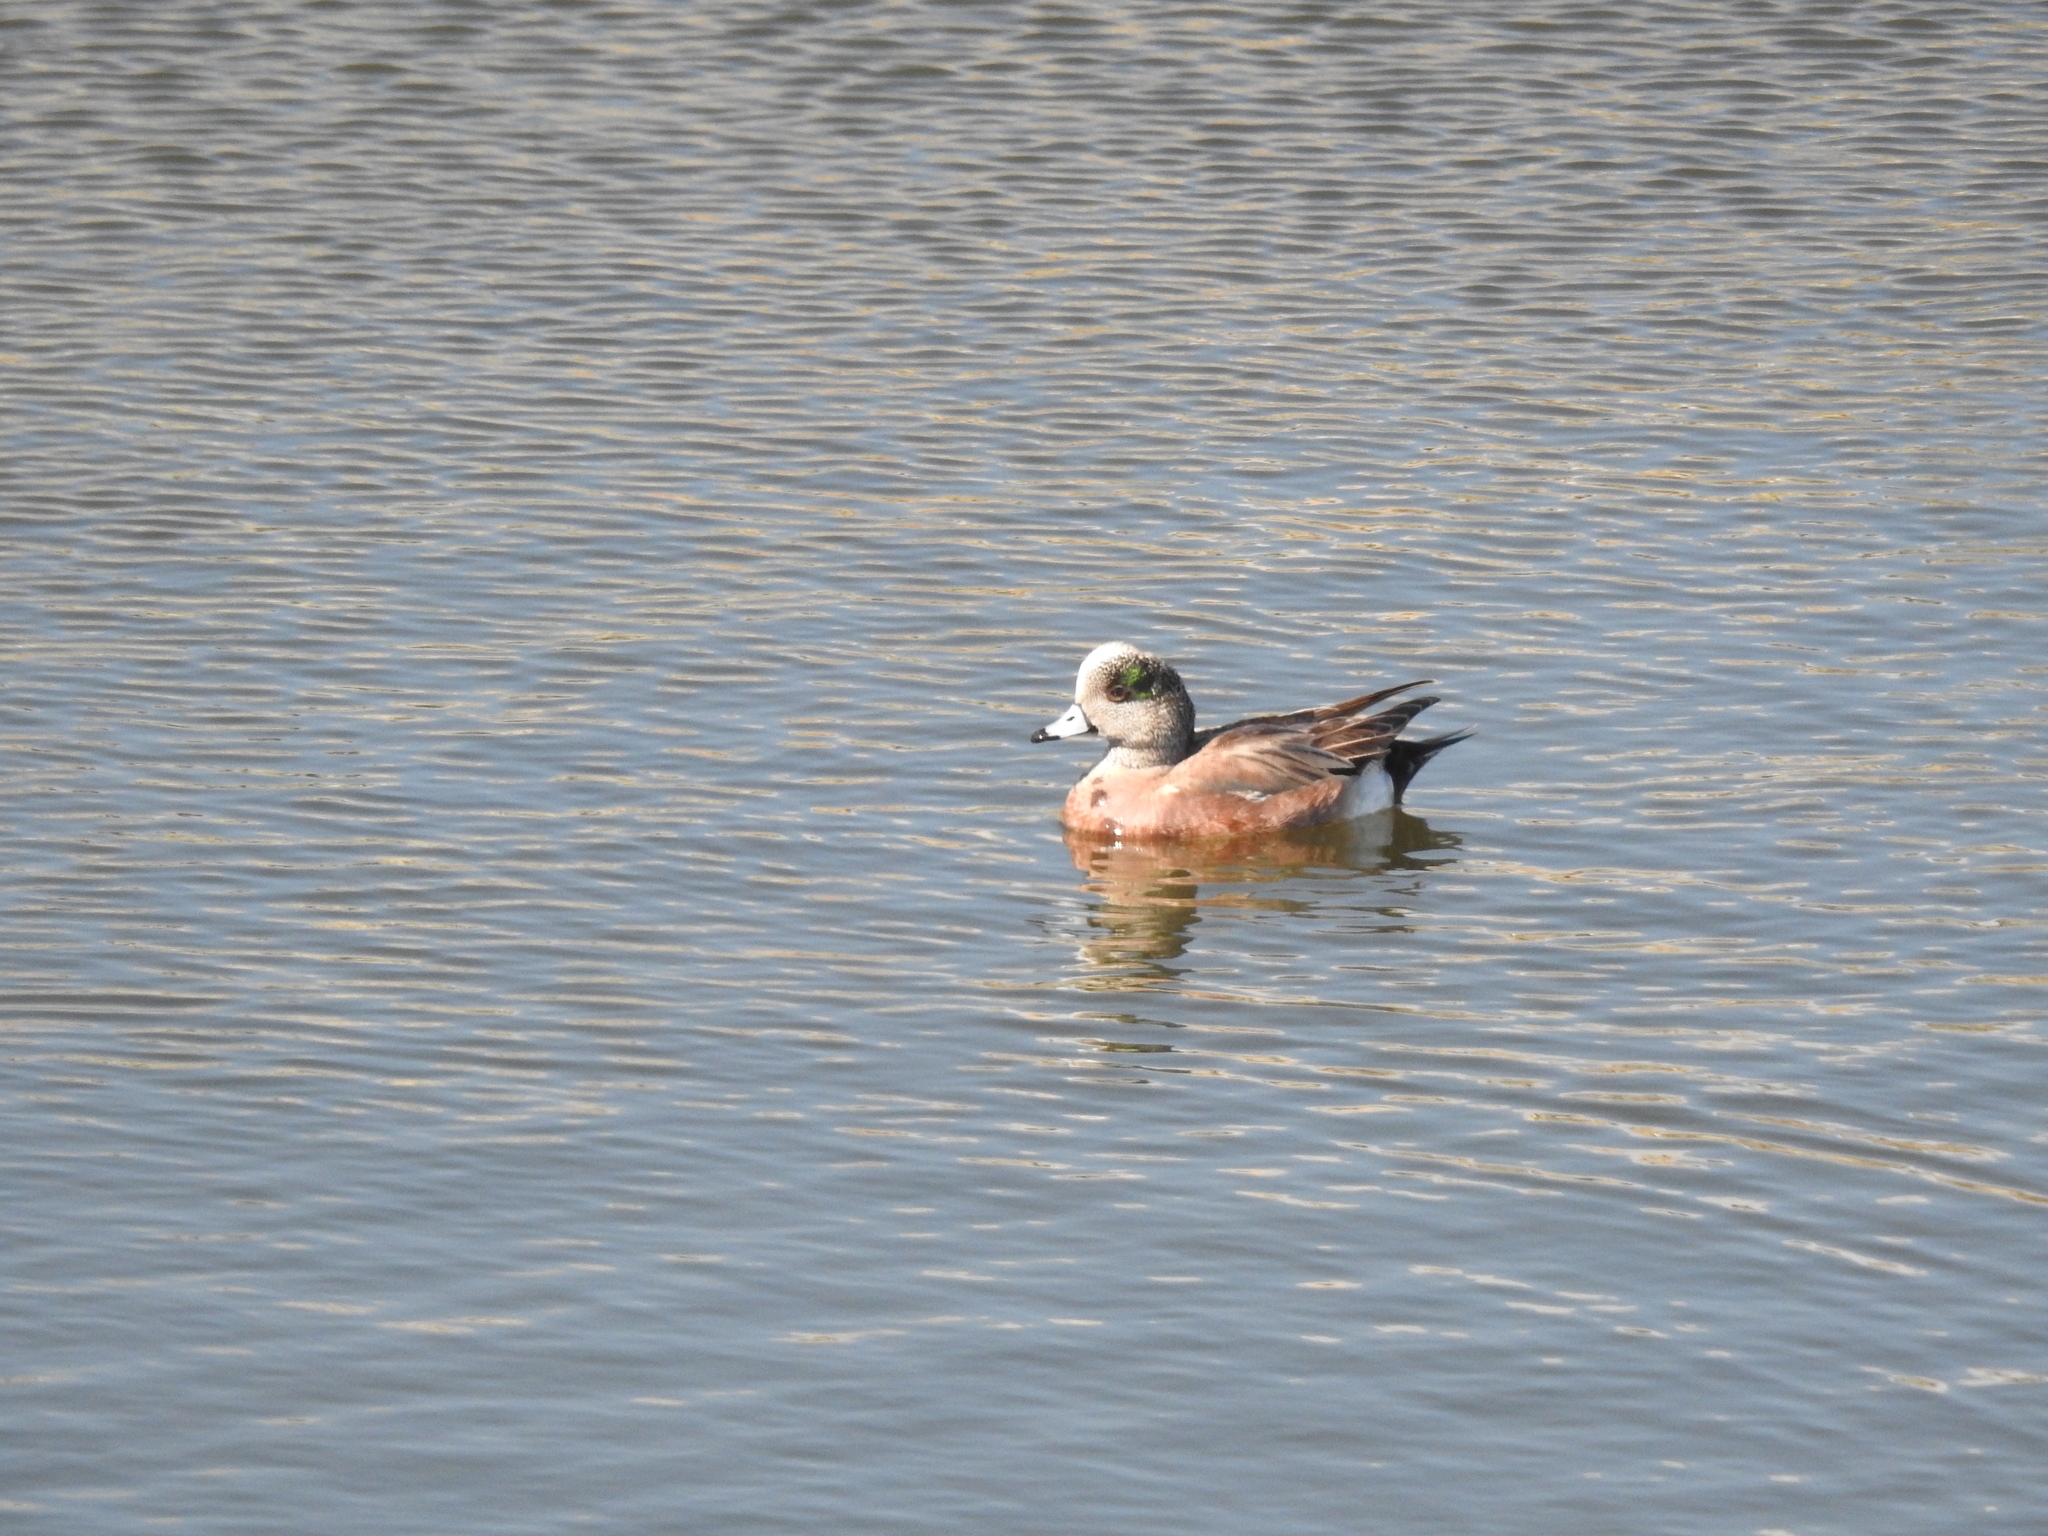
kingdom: Animalia
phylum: Chordata
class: Aves
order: Anseriformes
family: Anatidae
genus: Mareca
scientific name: Mareca americana
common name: American wigeon
